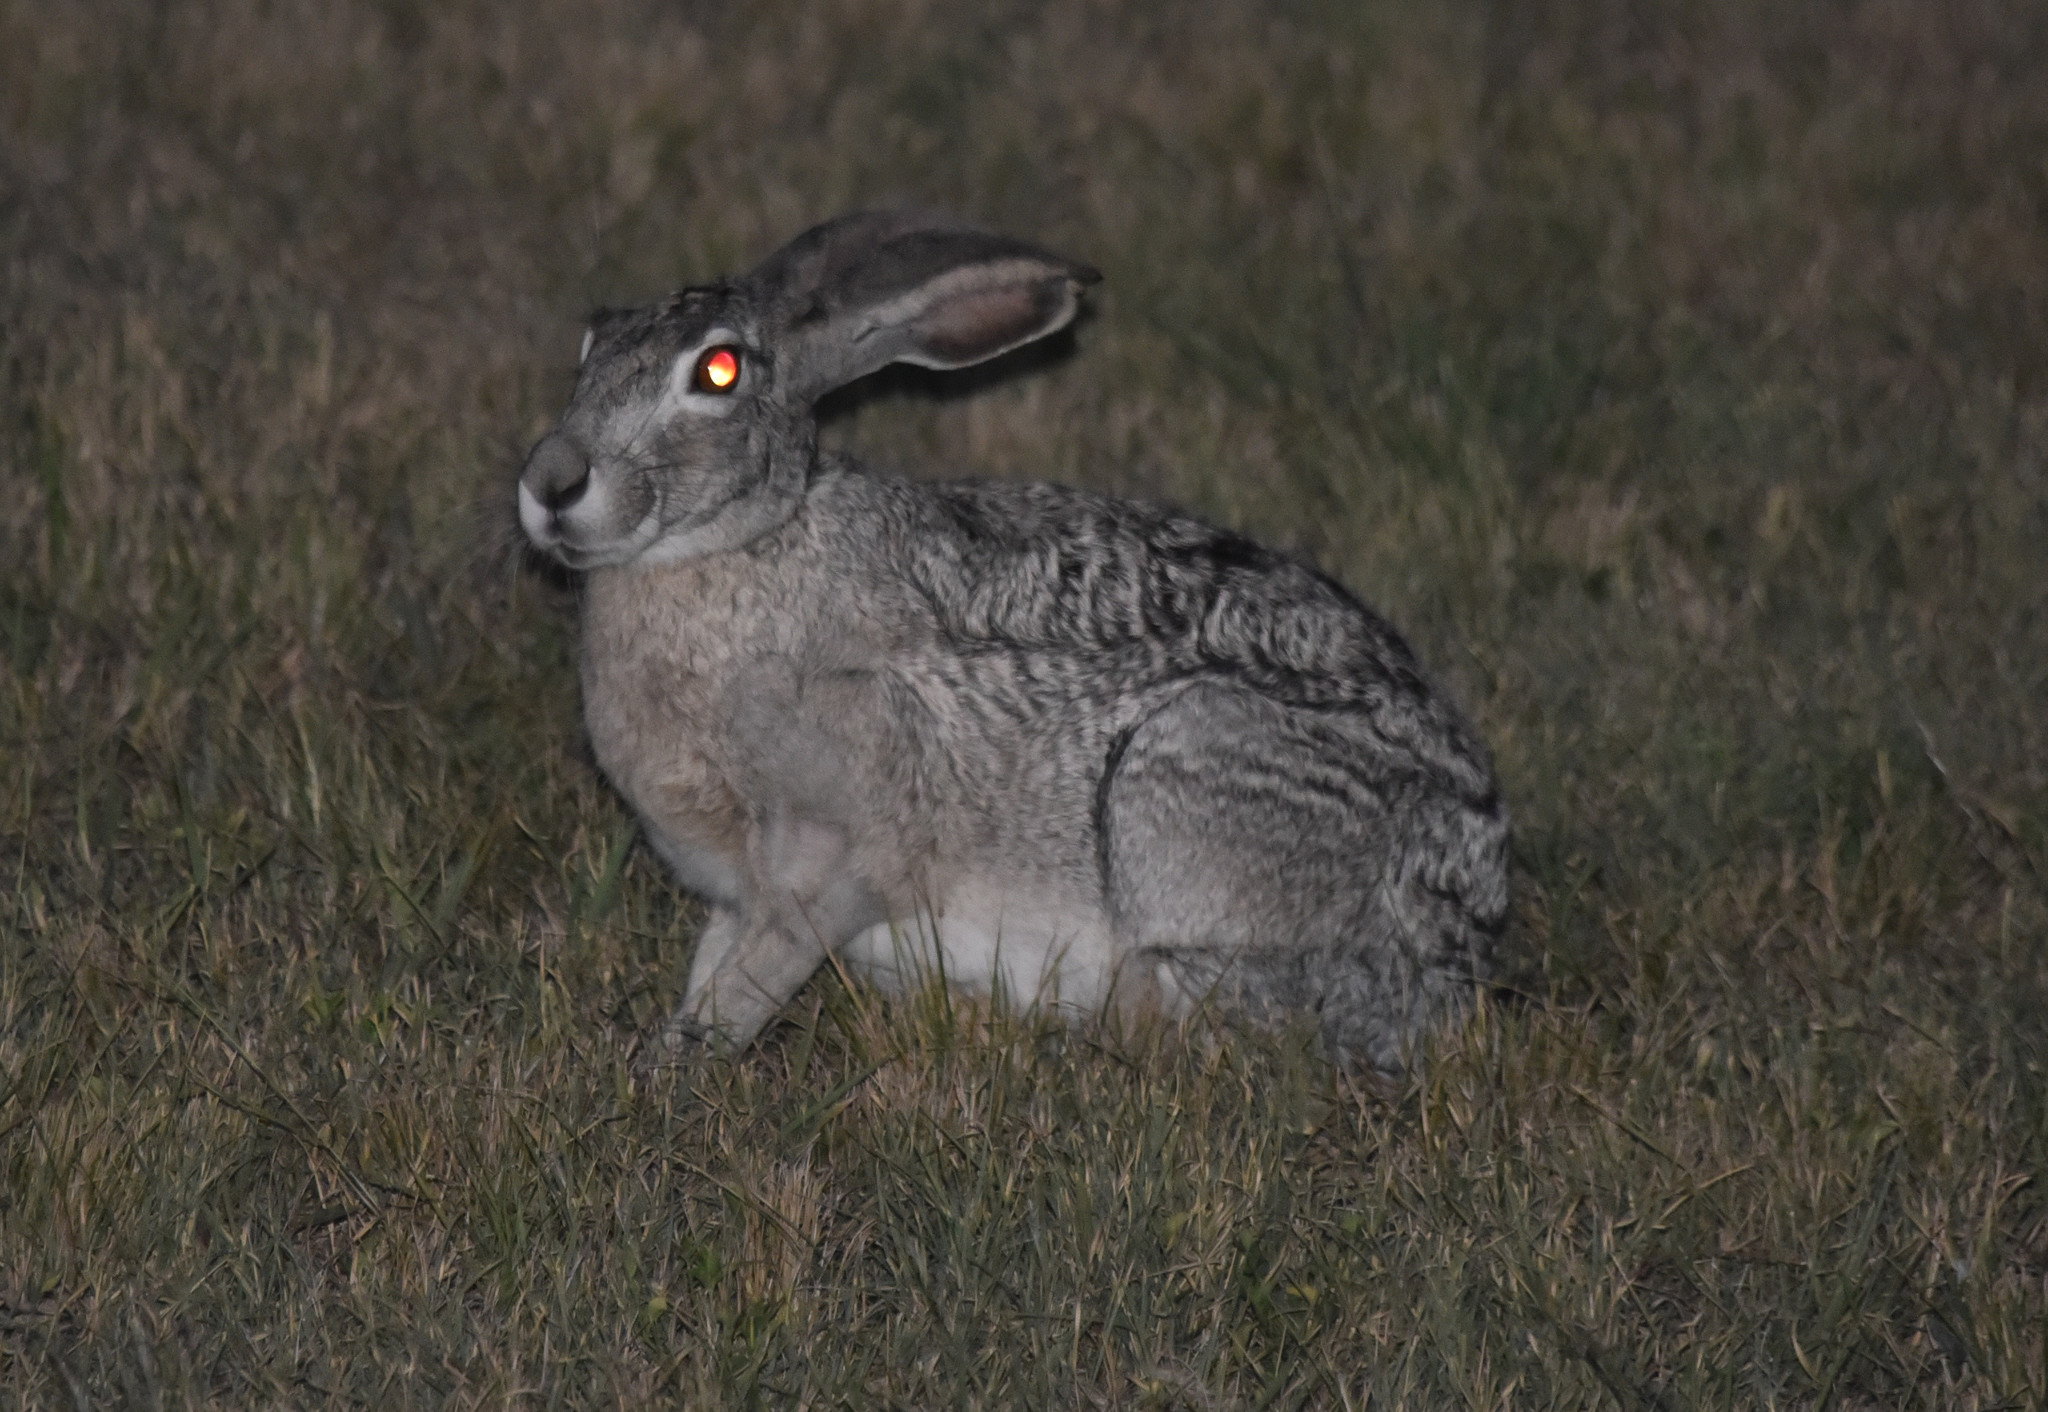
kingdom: Animalia
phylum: Chordata
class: Mammalia
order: Lagomorpha
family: Leporidae
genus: Lepus
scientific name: Lepus californicus
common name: Black-tailed jackrabbit
